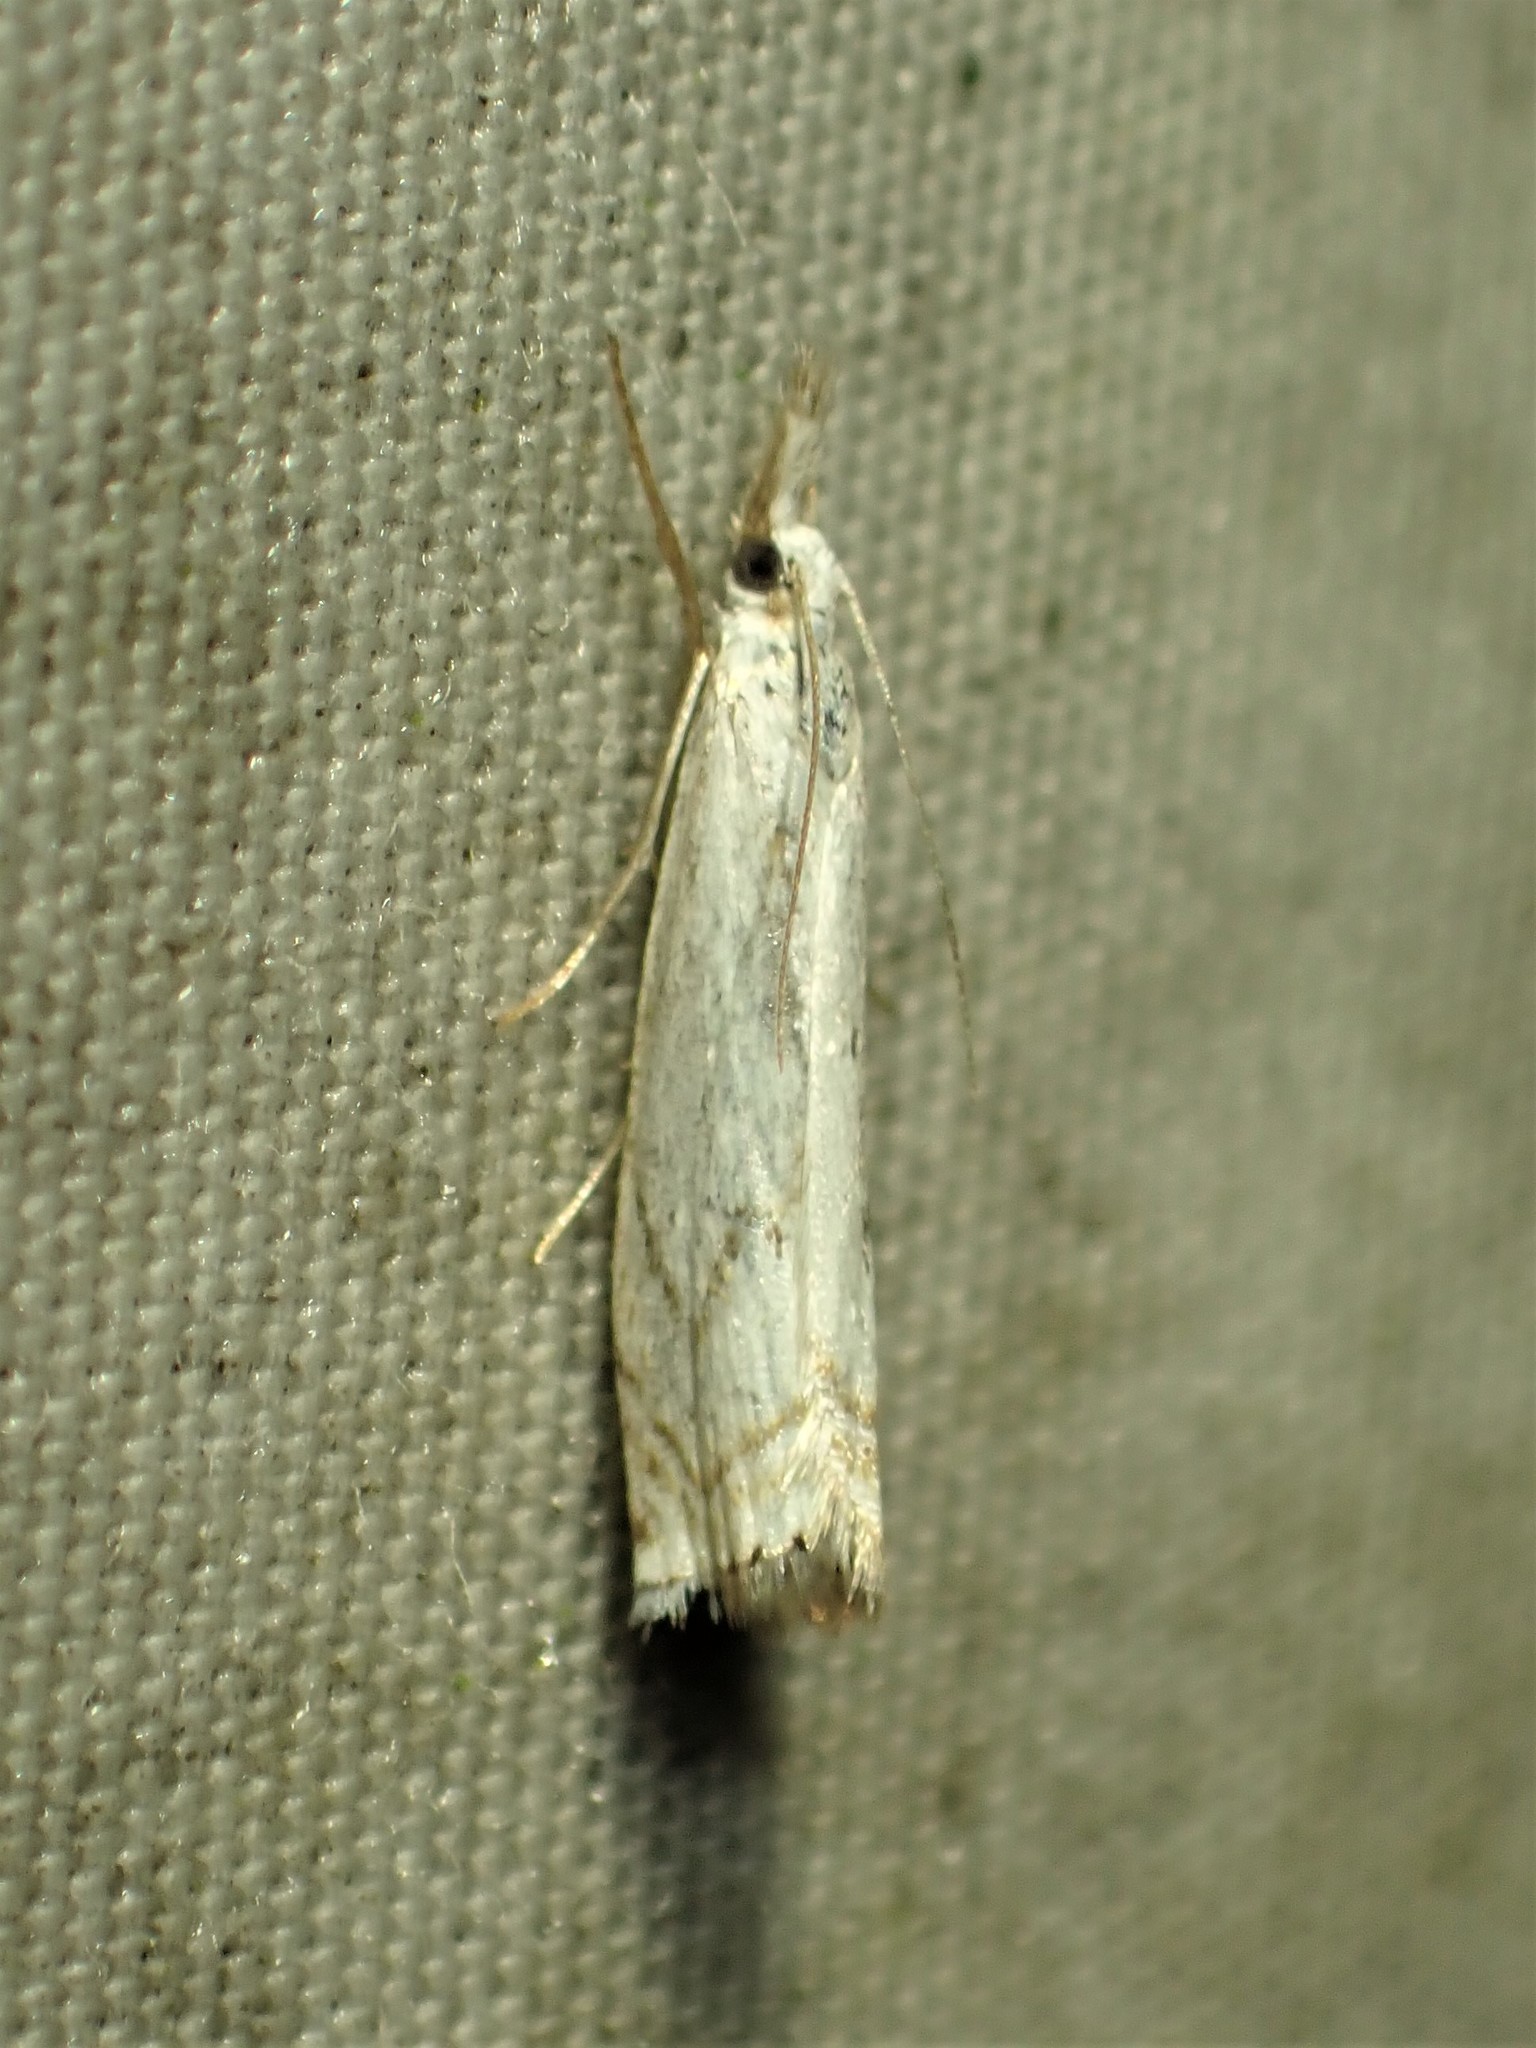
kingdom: Animalia
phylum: Arthropoda
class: Insecta
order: Lepidoptera
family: Crambidae
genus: Crambus
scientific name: Crambus albellus
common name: Small white grass-veneer
